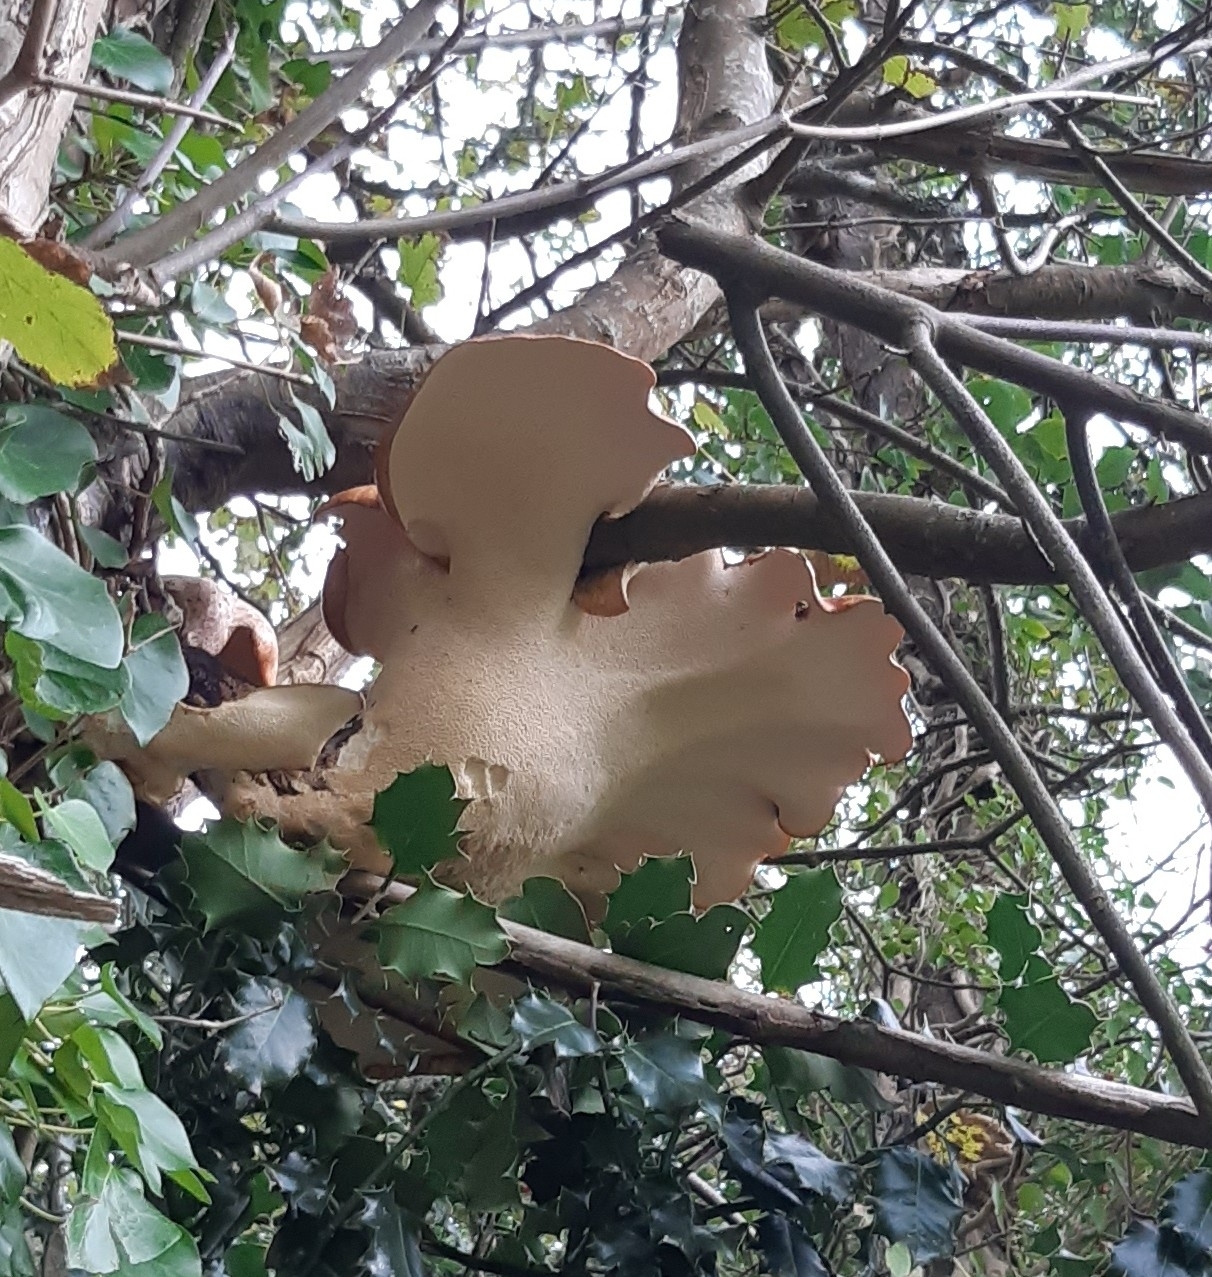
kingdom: Fungi
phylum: Basidiomycota
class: Agaricomycetes
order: Polyporales
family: Polyporaceae
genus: Cerioporus
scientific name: Cerioporus squamosus
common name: Dryad's saddle
